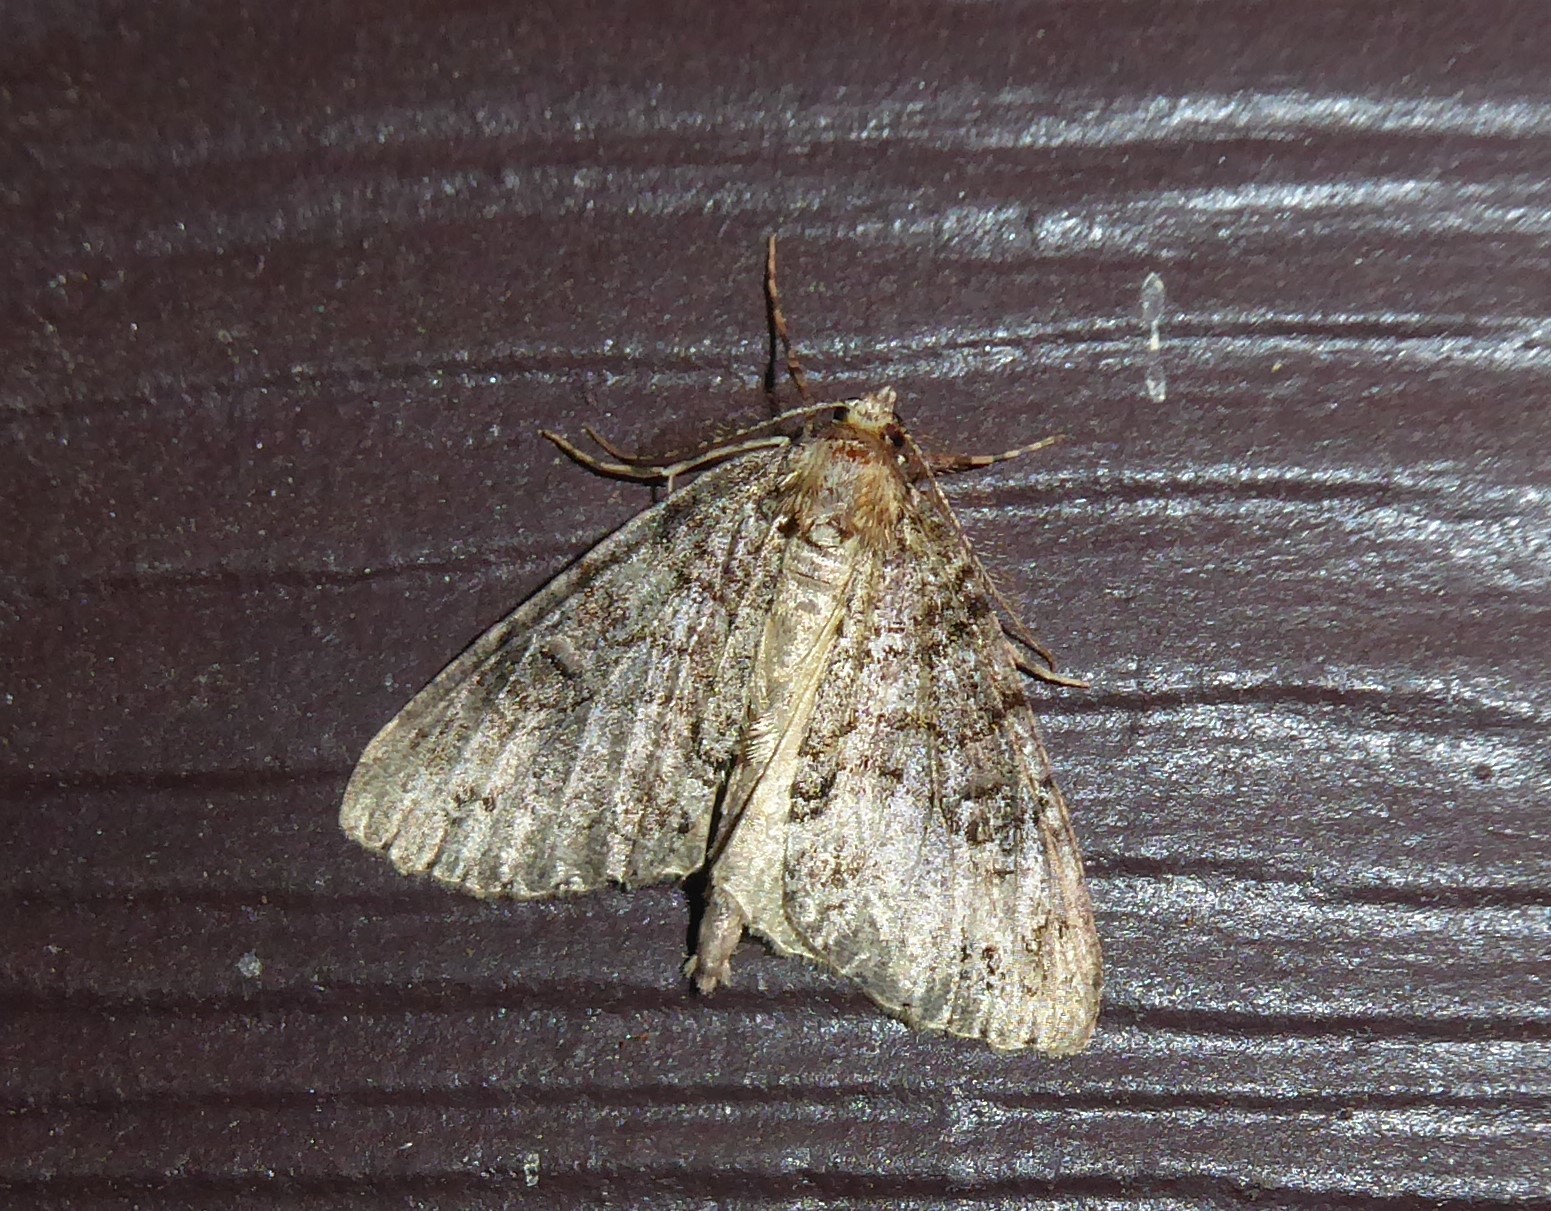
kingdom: Animalia
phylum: Arthropoda
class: Insecta
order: Lepidoptera
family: Geometridae
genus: Pseudocoremia
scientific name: Pseudocoremia suavis
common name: Common forest looper
